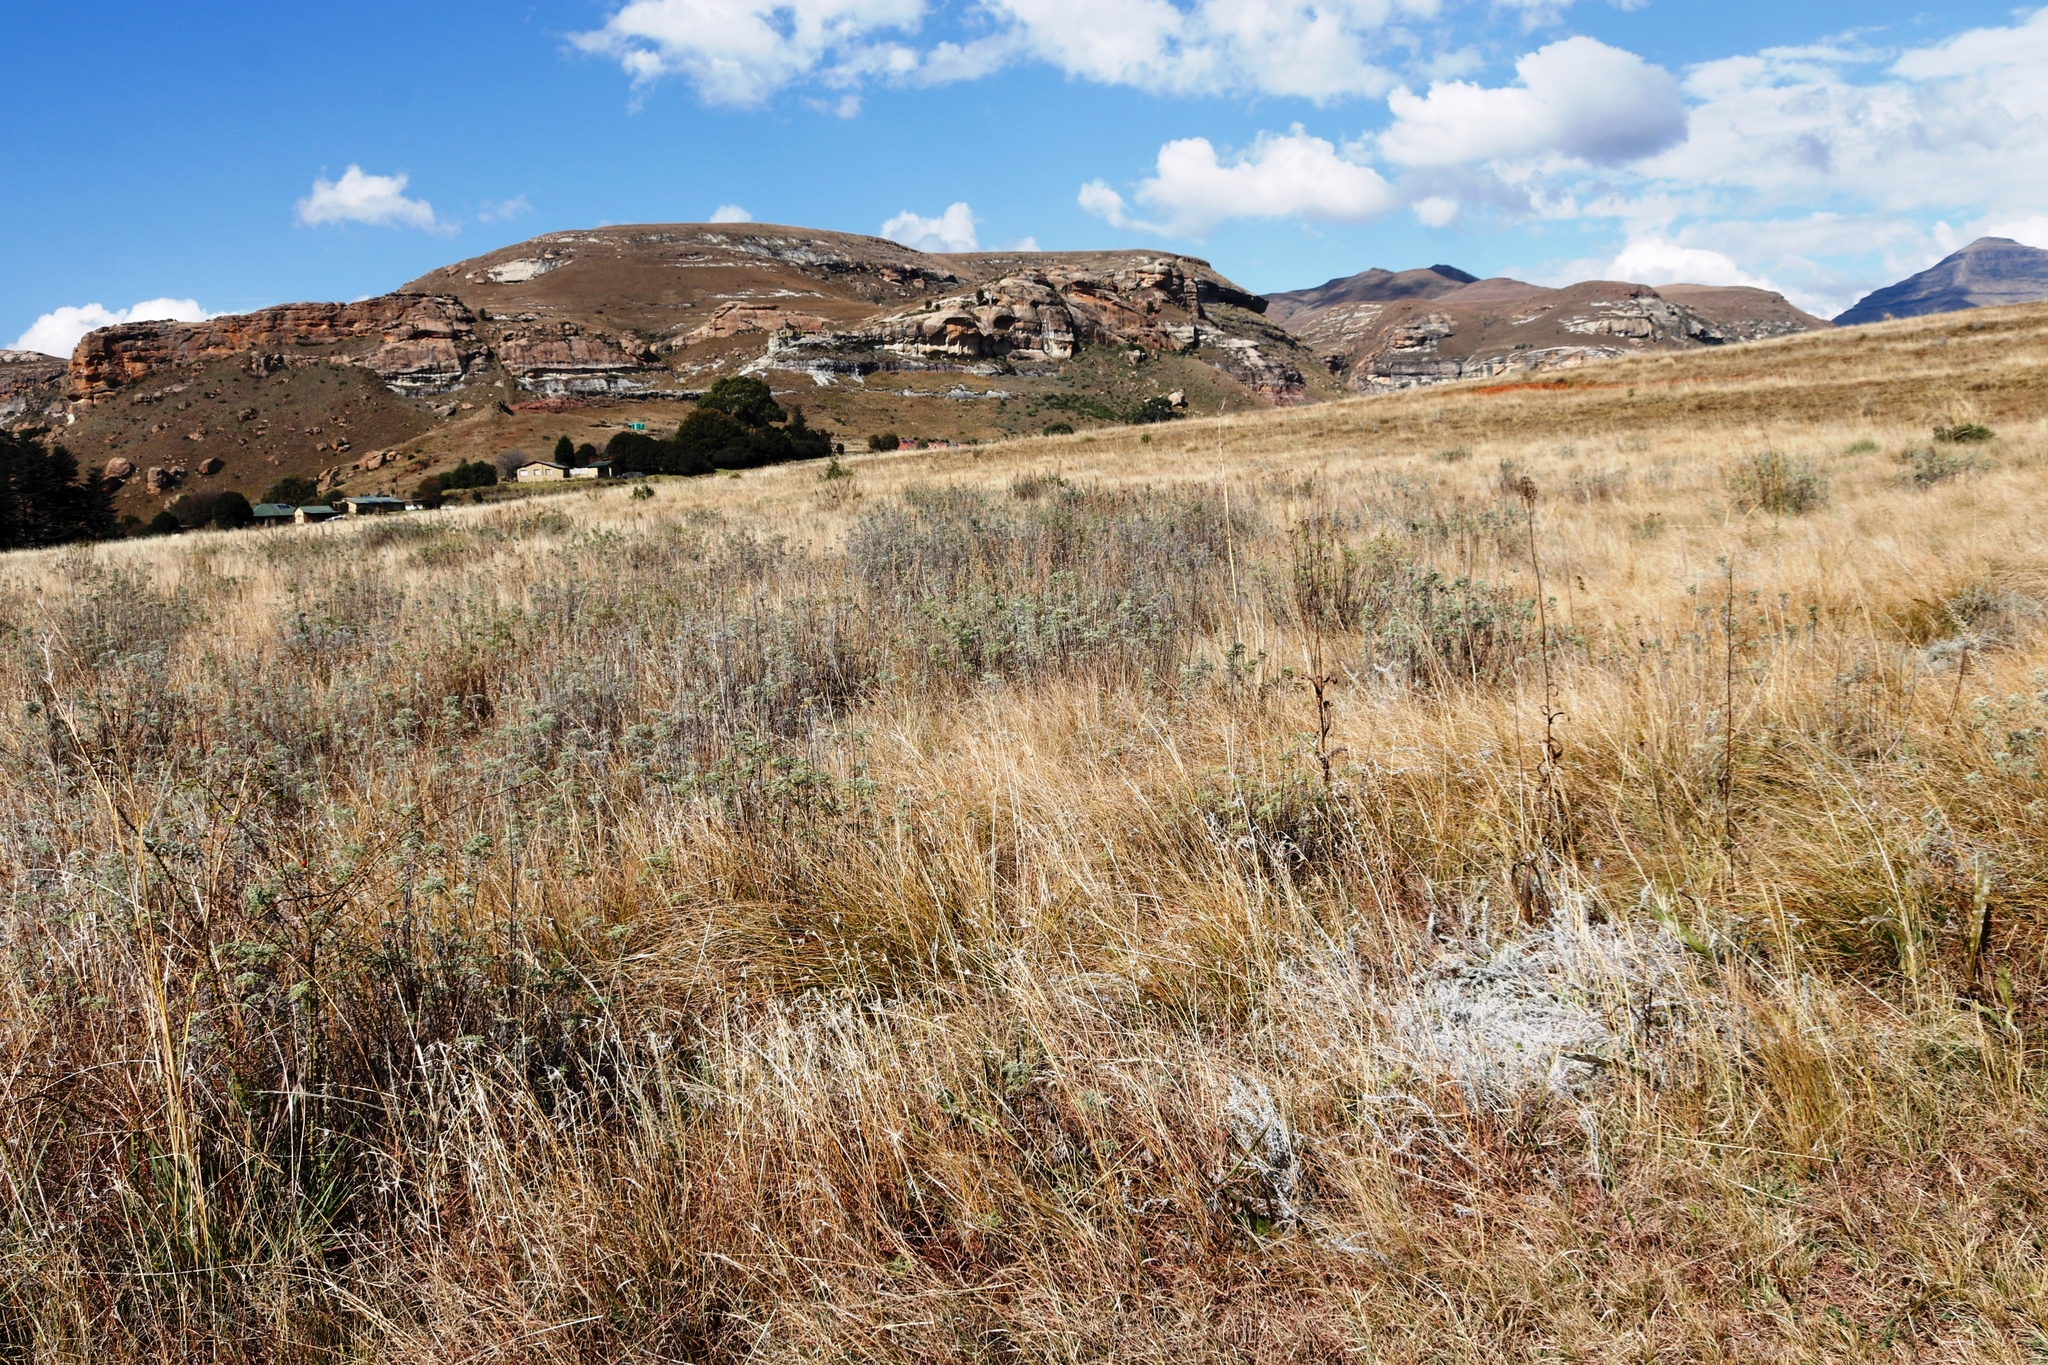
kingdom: Plantae
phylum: Tracheophyta
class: Magnoliopsida
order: Asterales
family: Asteraceae
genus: Artemisia
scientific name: Artemisia afra
